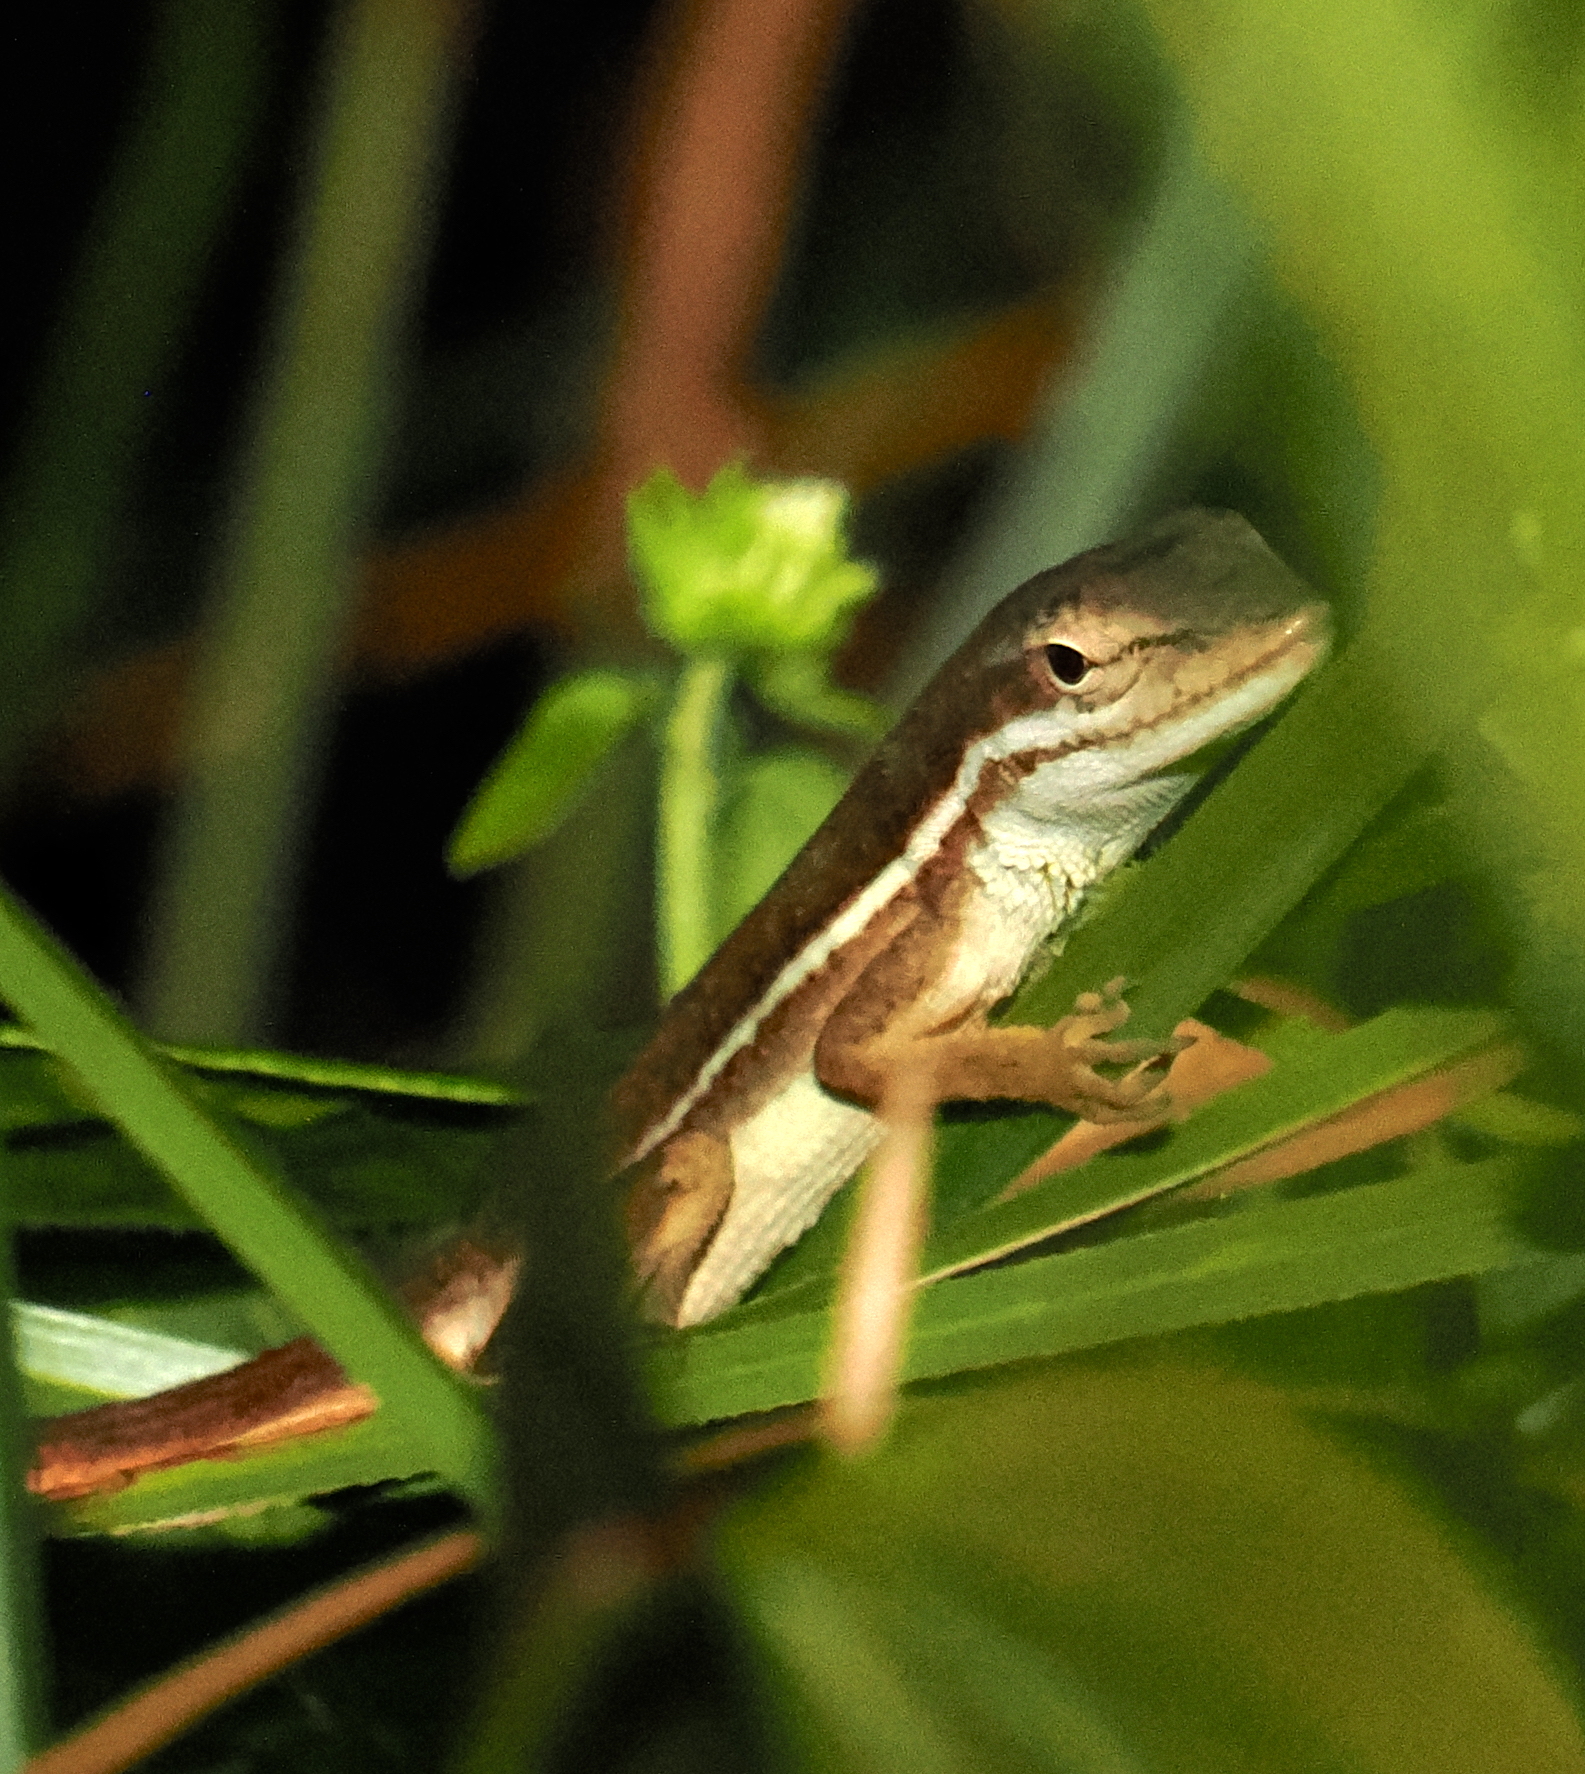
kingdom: Animalia
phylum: Chordata
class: Squamata
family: Dactyloidae
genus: Anolis
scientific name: Anolis auratus
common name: Grass anole
